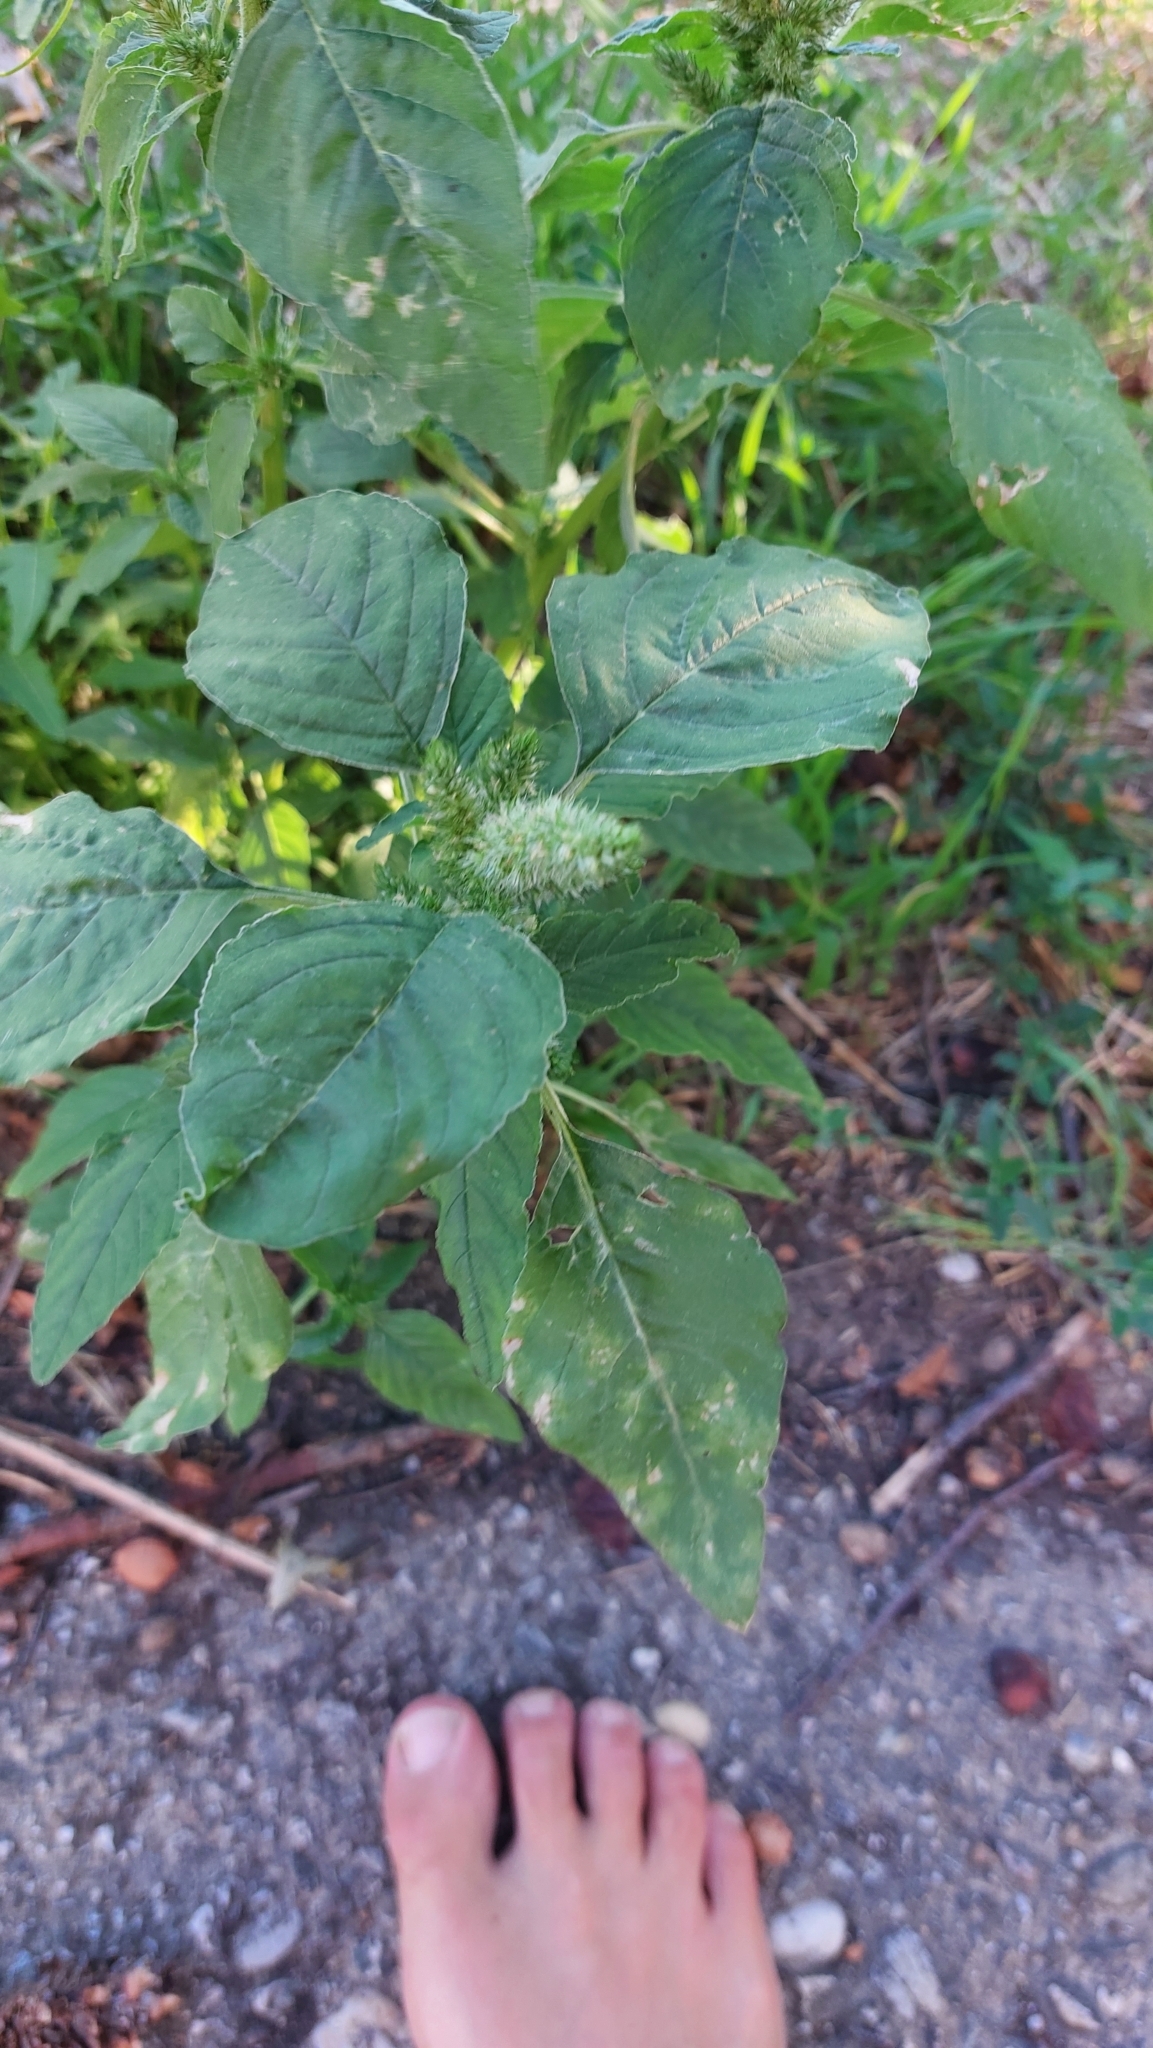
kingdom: Plantae
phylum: Tracheophyta
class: Magnoliopsida
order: Caryophyllales
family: Amaranthaceae
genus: Amaranthus
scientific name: Amaranthus retroflexus
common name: Redroot amaranth
